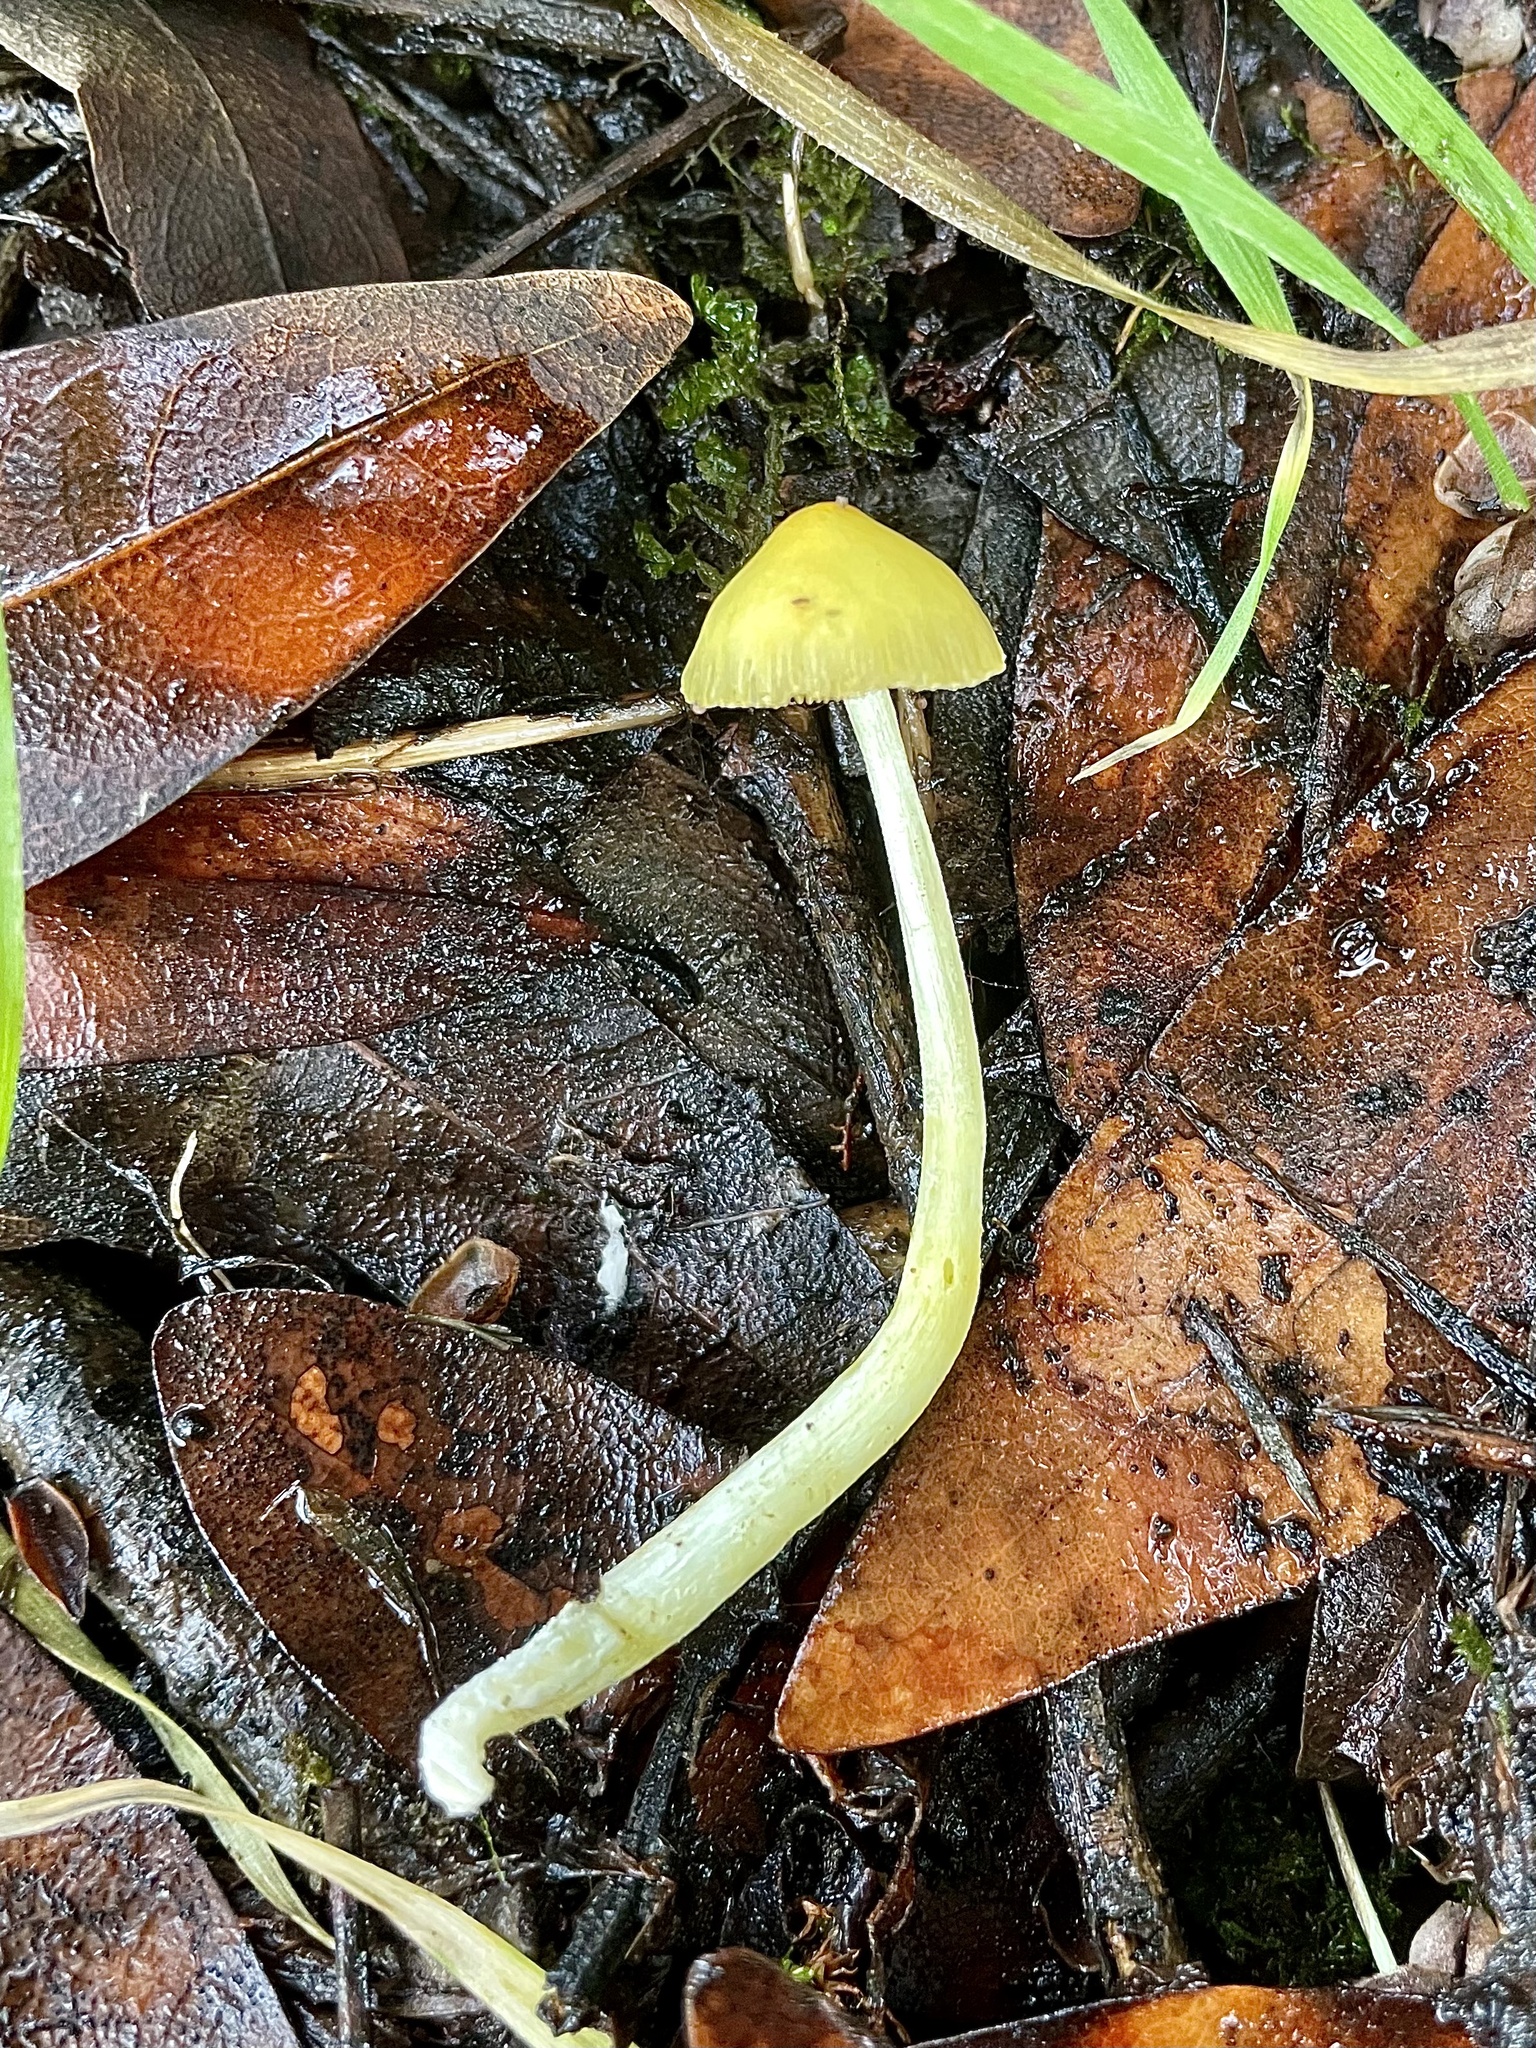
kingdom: Fungi
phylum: Basidiomycota
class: Agaricomycetes
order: Agaricales
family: Bolbitiaceae
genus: Bolbitius
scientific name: Bolbitius titubans
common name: Yellow fieldcap
